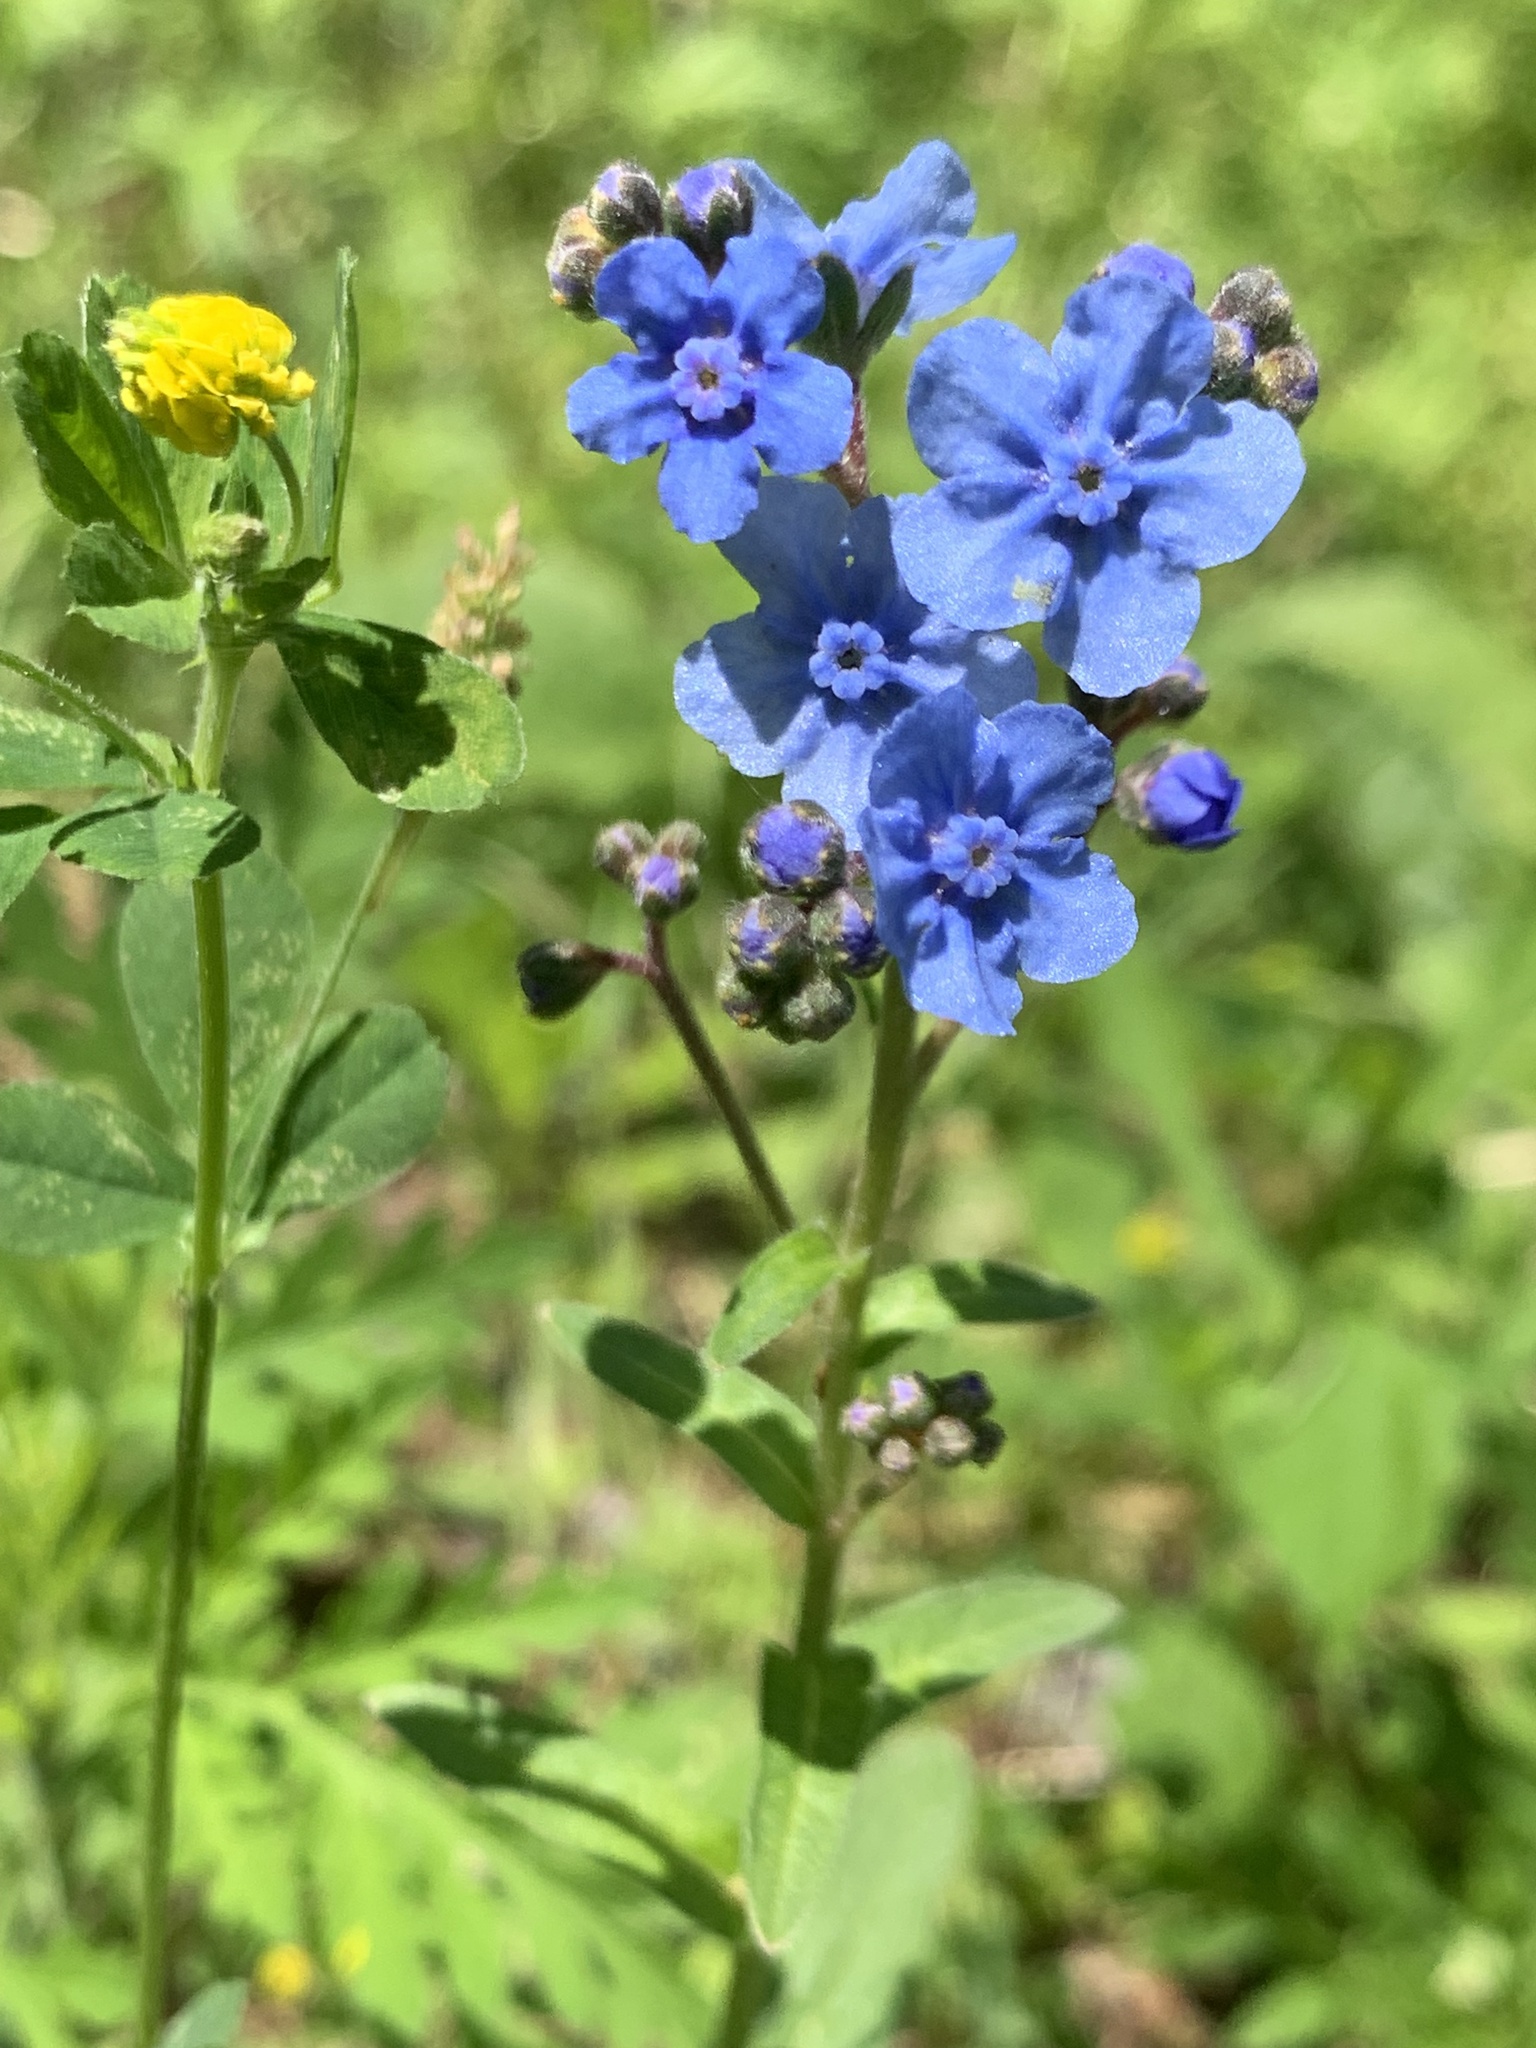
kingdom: Plantae
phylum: Tracheophyta
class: Magnoliopsida
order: Boraginales
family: Boraginaceae
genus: Cynoglossum
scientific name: Cynoglossum amabile
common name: Chinese hound's tongue
